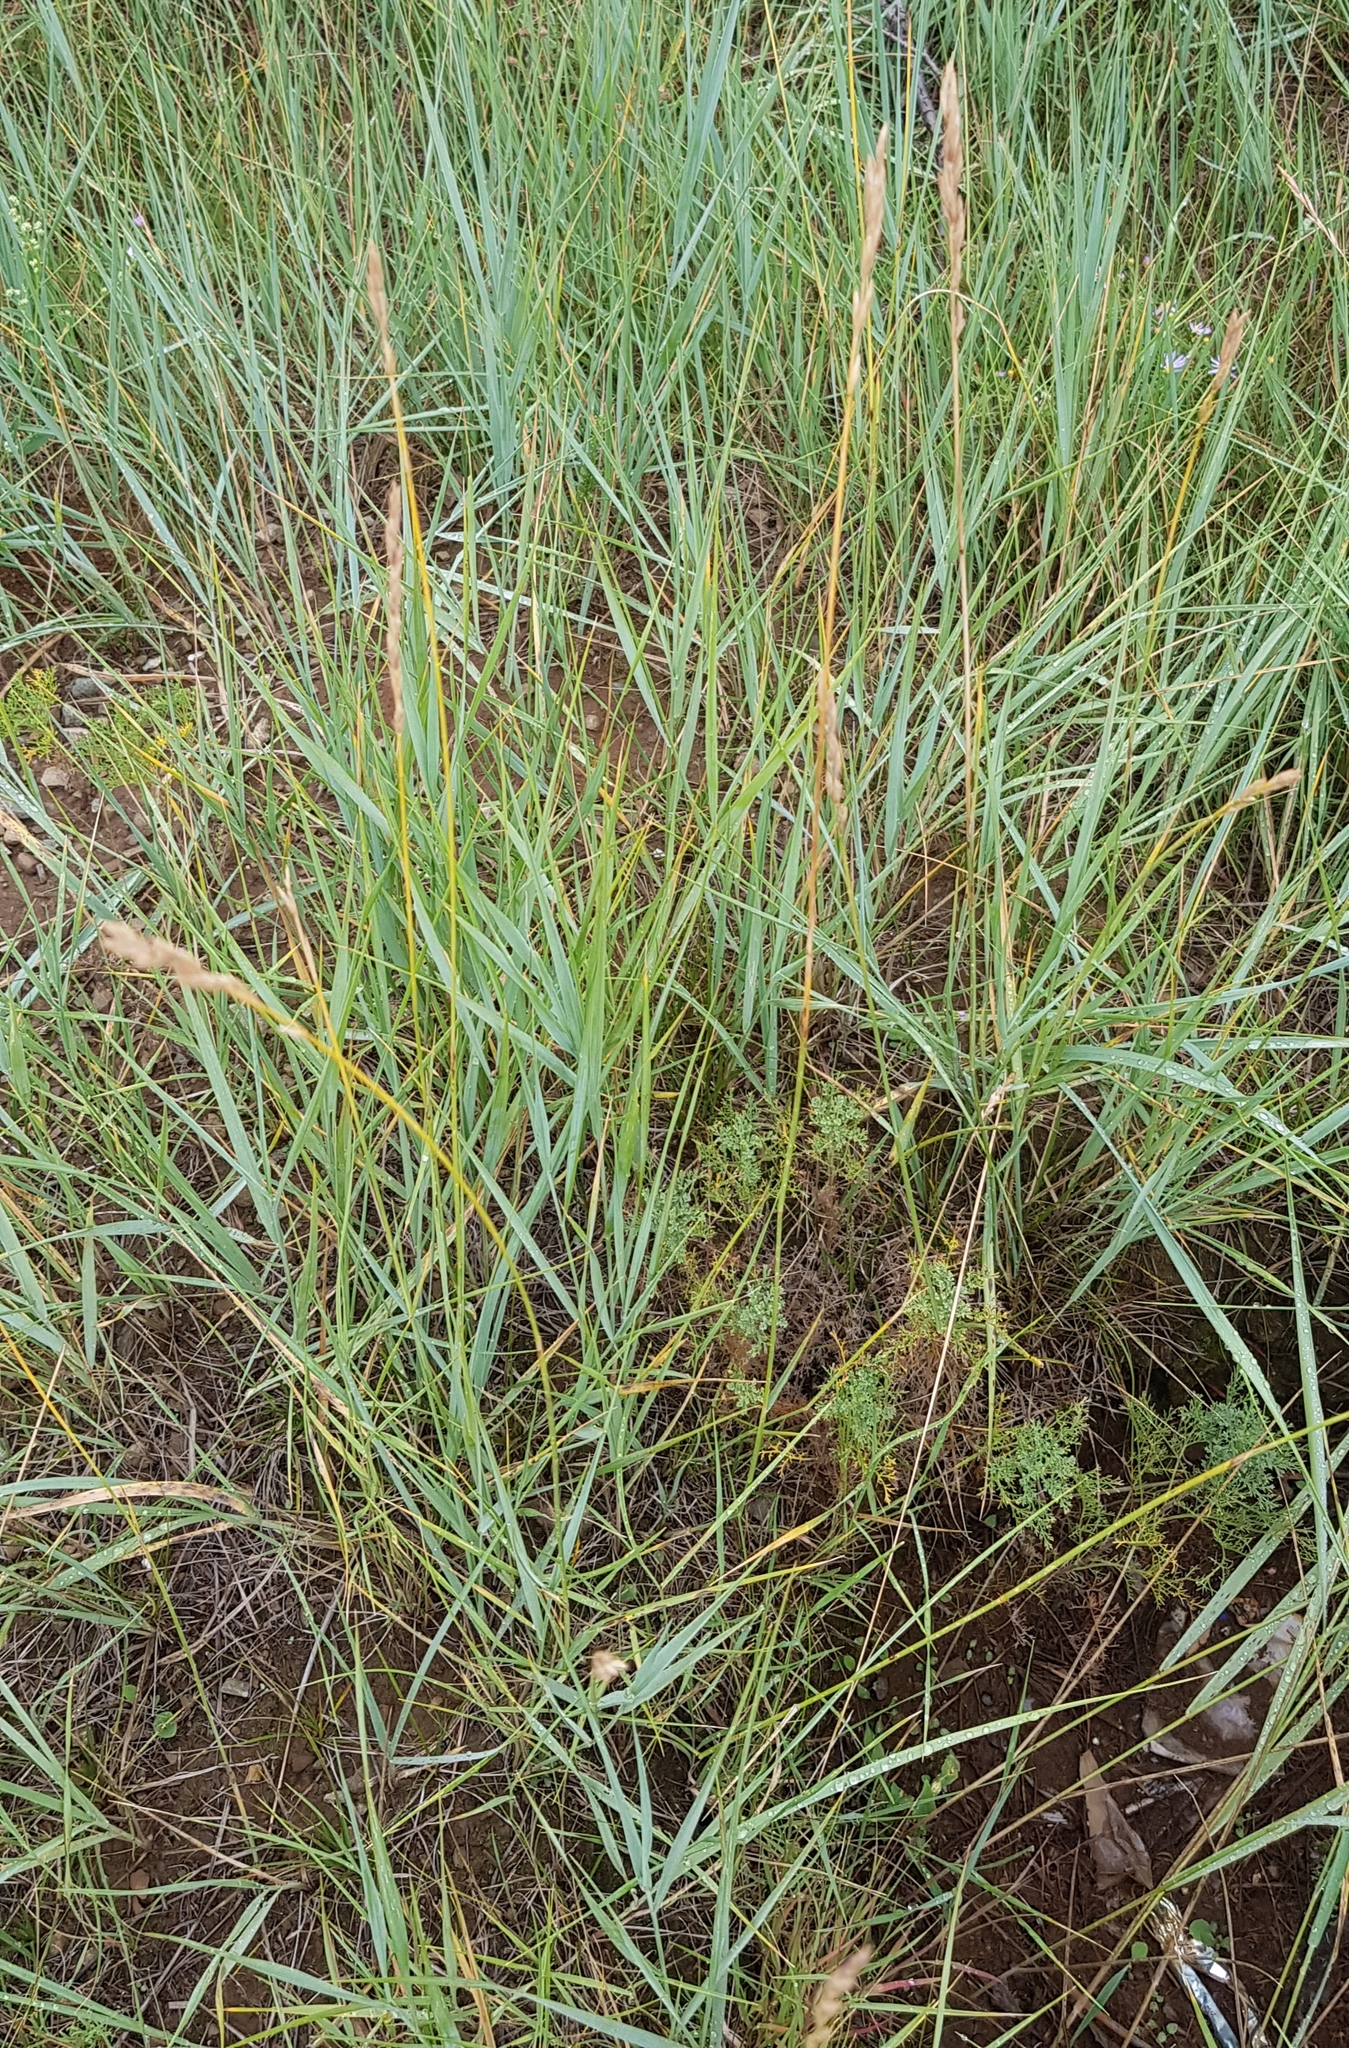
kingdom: Plantae
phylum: Tracheophyta
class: Liliopsida
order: Poales
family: Poaceae
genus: Leymus
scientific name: Leymus chinensis
